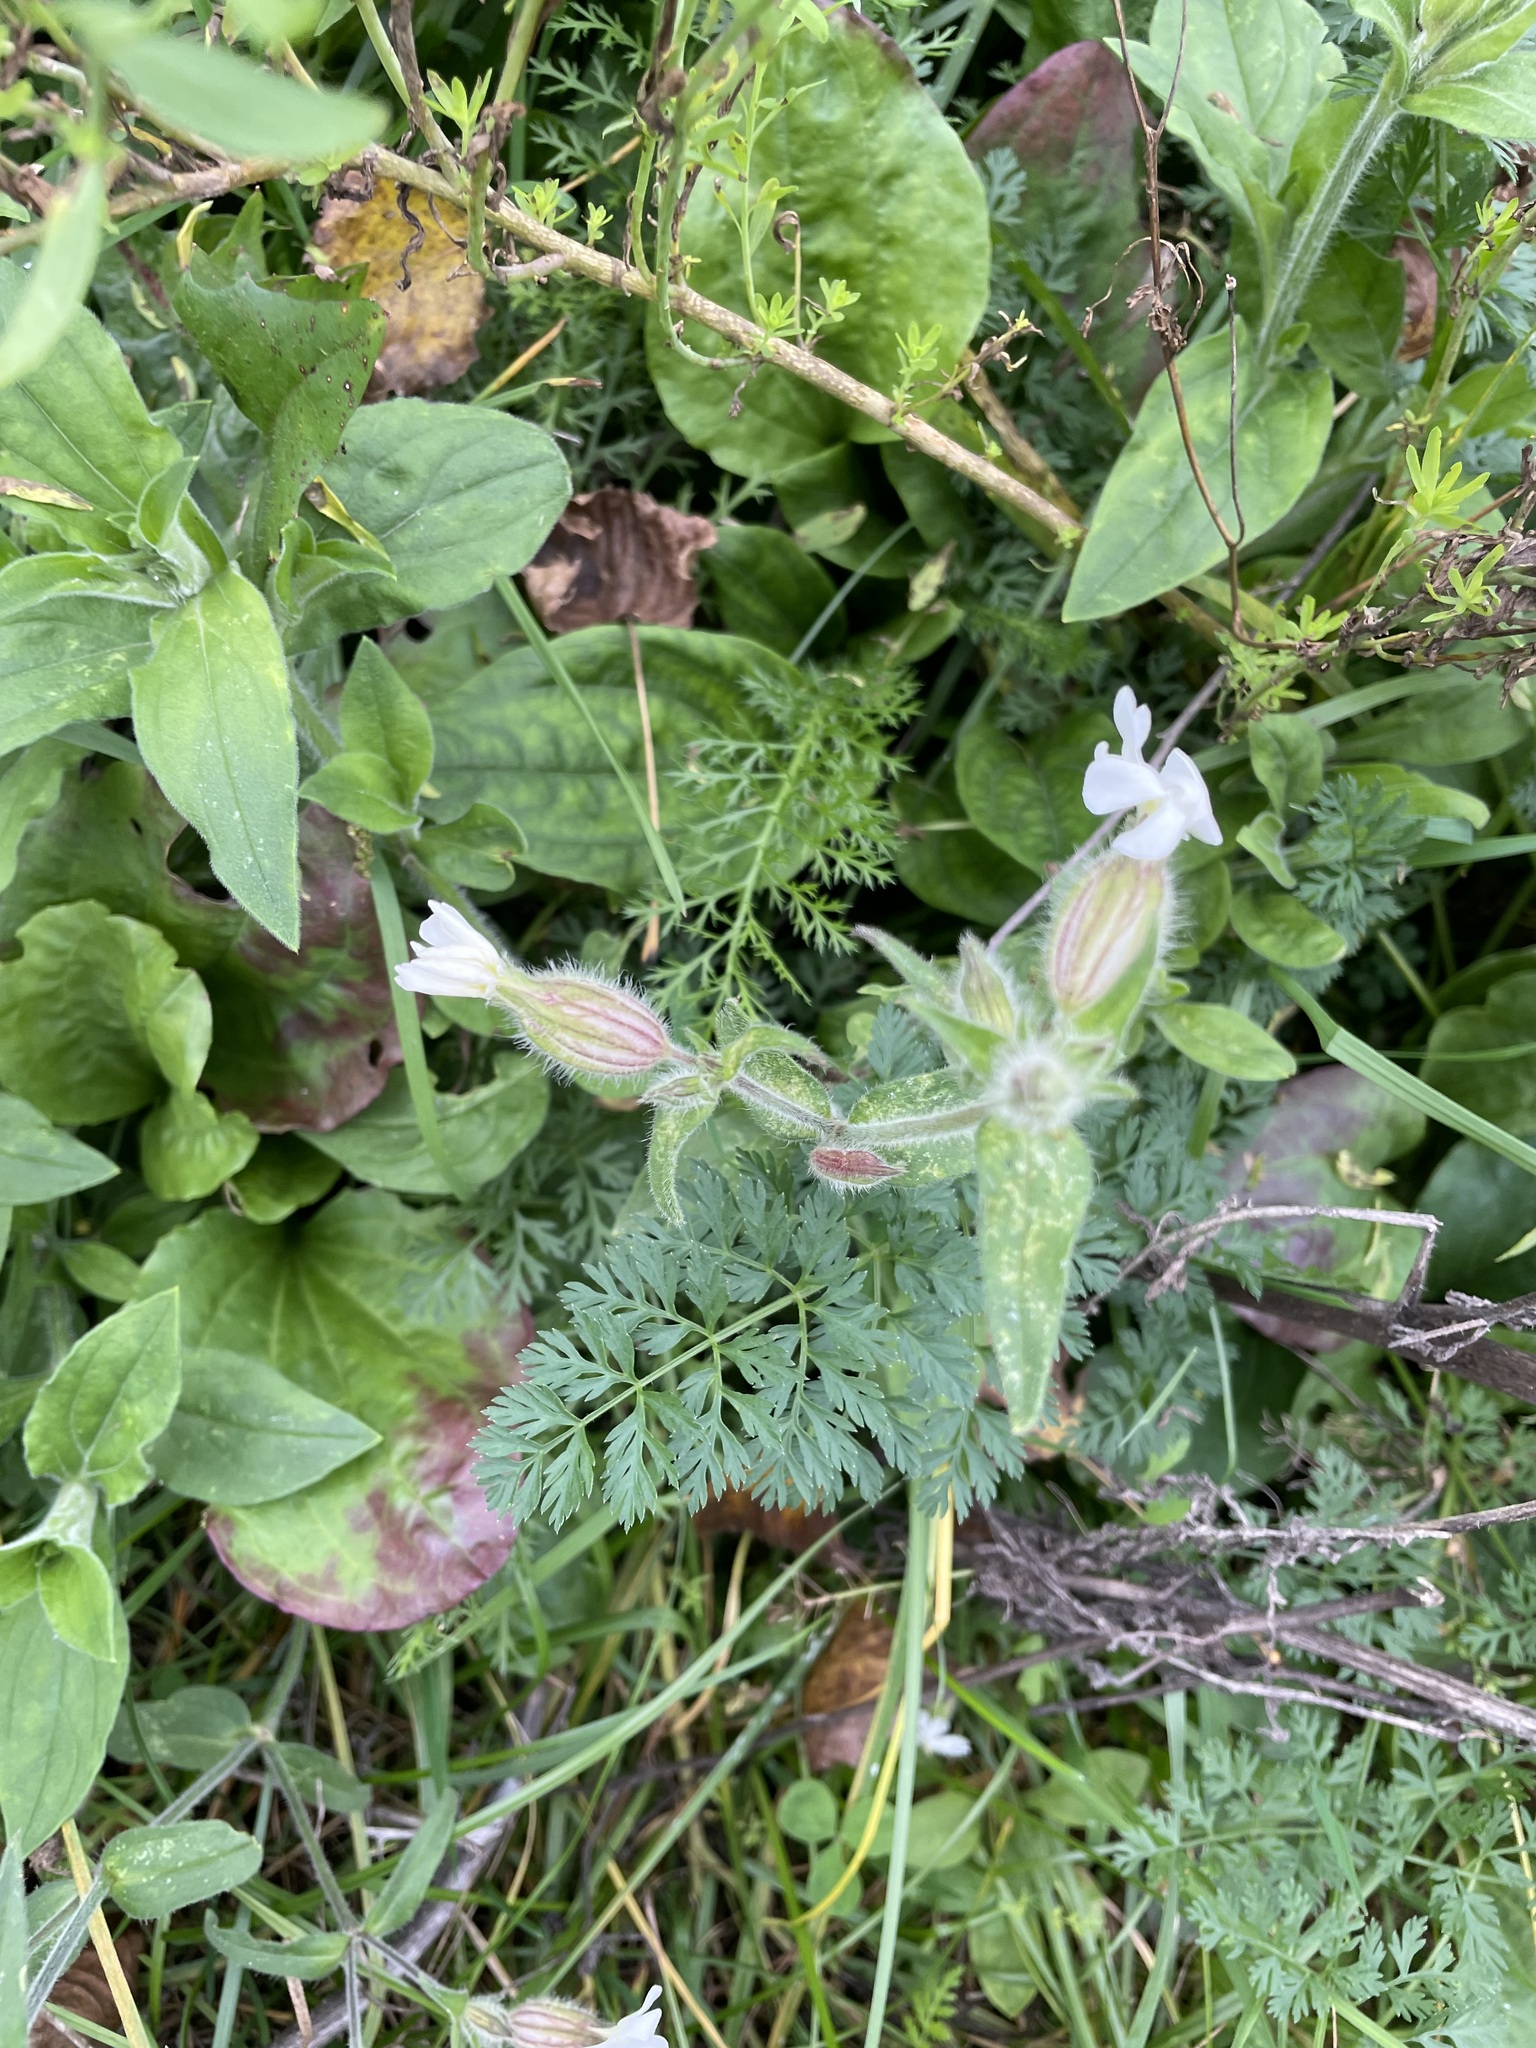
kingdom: Plantae
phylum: Tracheophyta
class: Magnoliopsida
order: Caryophyllales
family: Caryophyllaceae
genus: Silene
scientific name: Silene latifolia
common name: White campion
